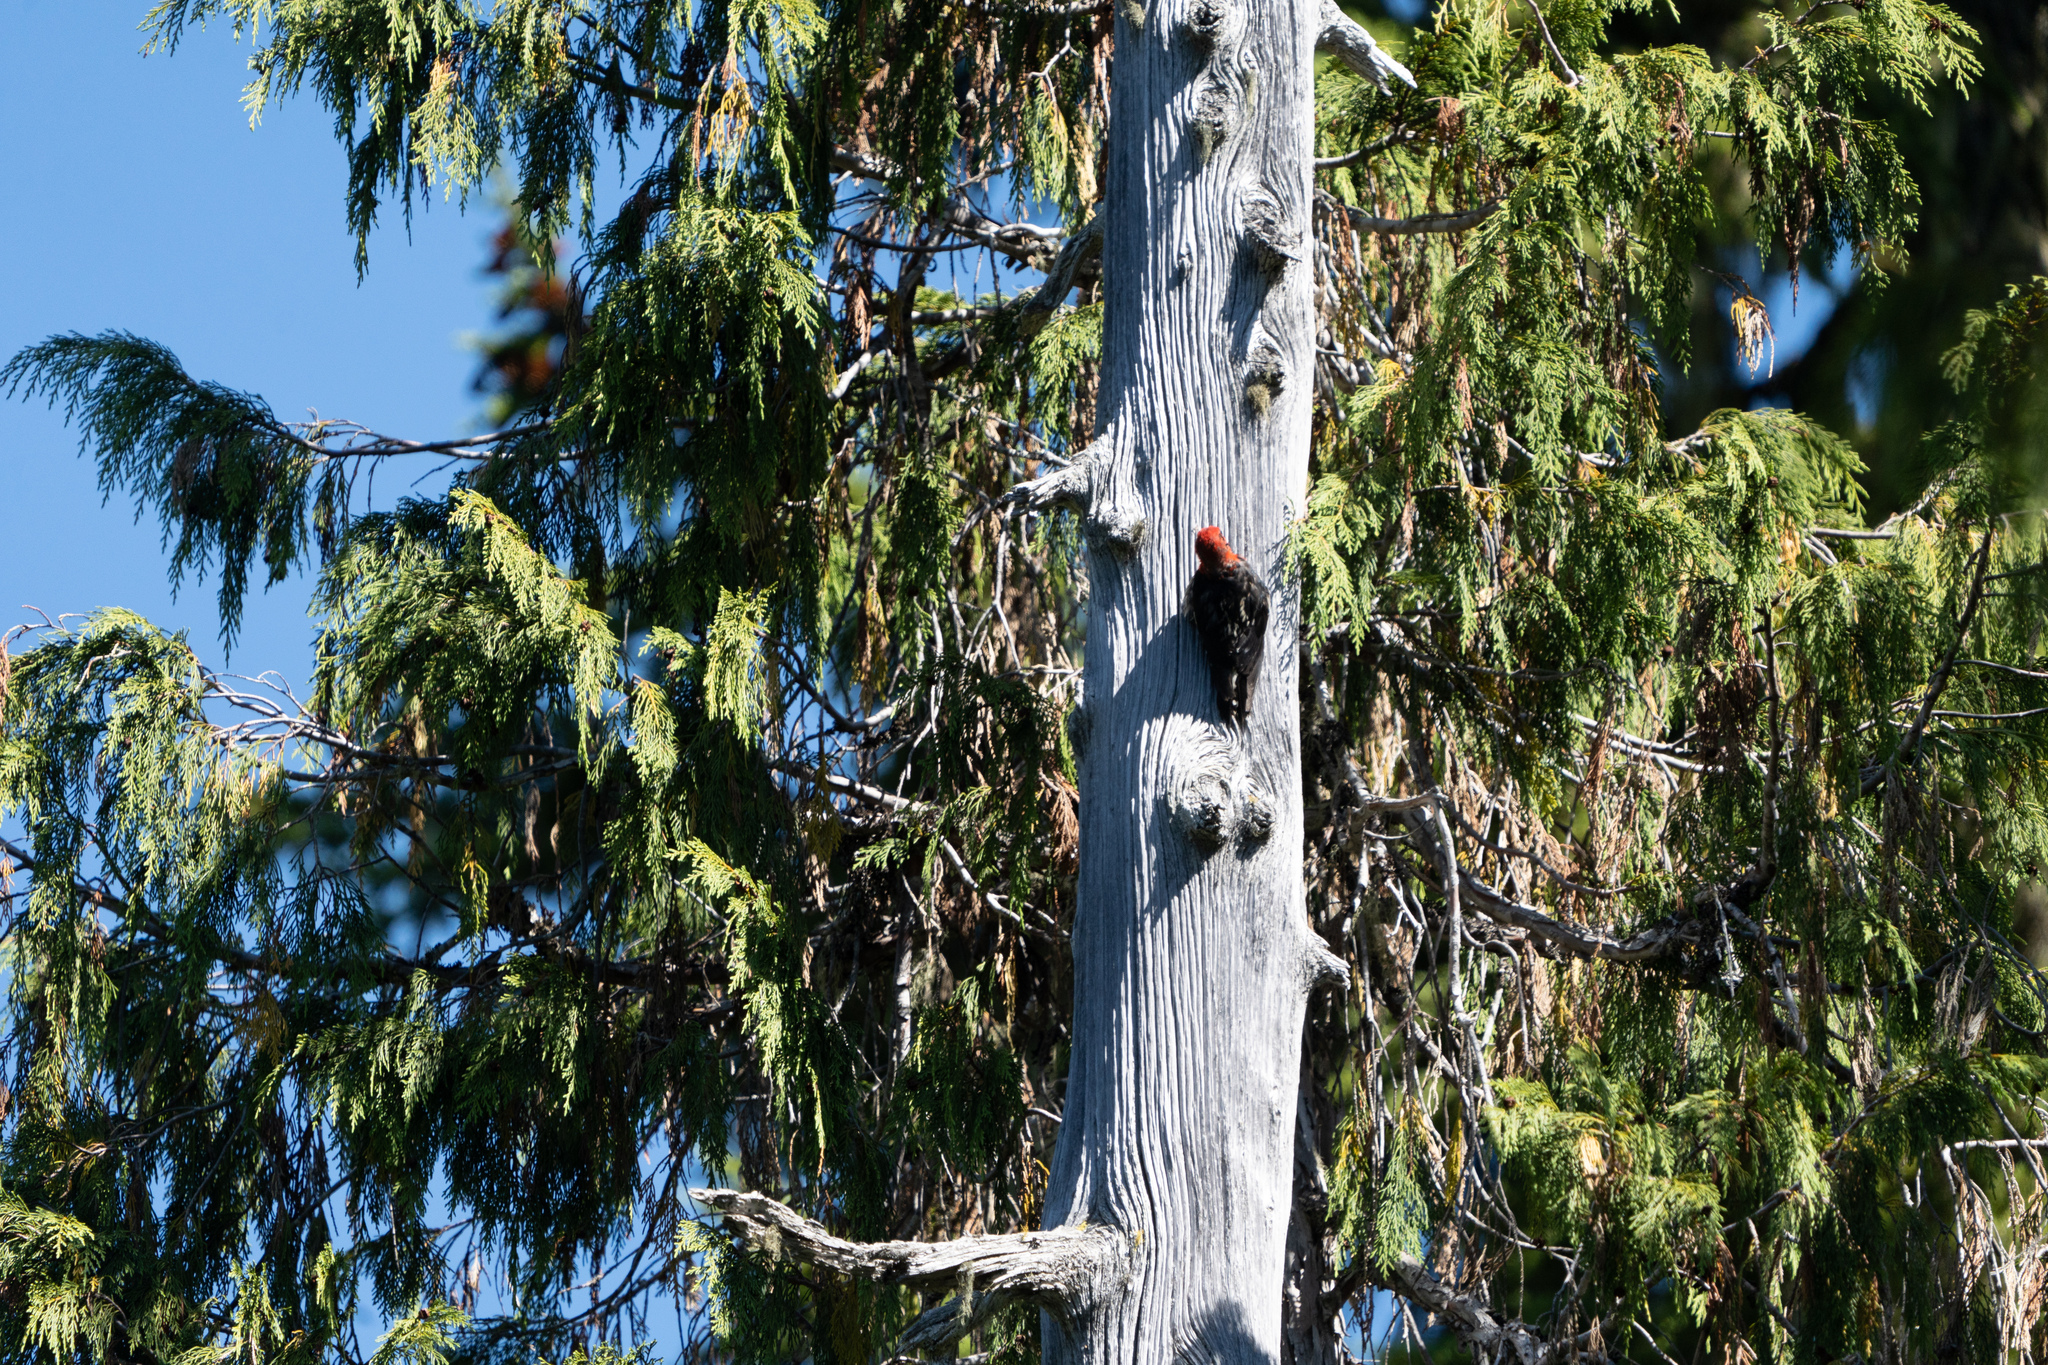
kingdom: Animalia
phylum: Chordata
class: Aves
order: Piciformes
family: Picidae
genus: Sphyrapicus
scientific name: Sphyrapicus ruber
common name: Red-breasted sapsucker
